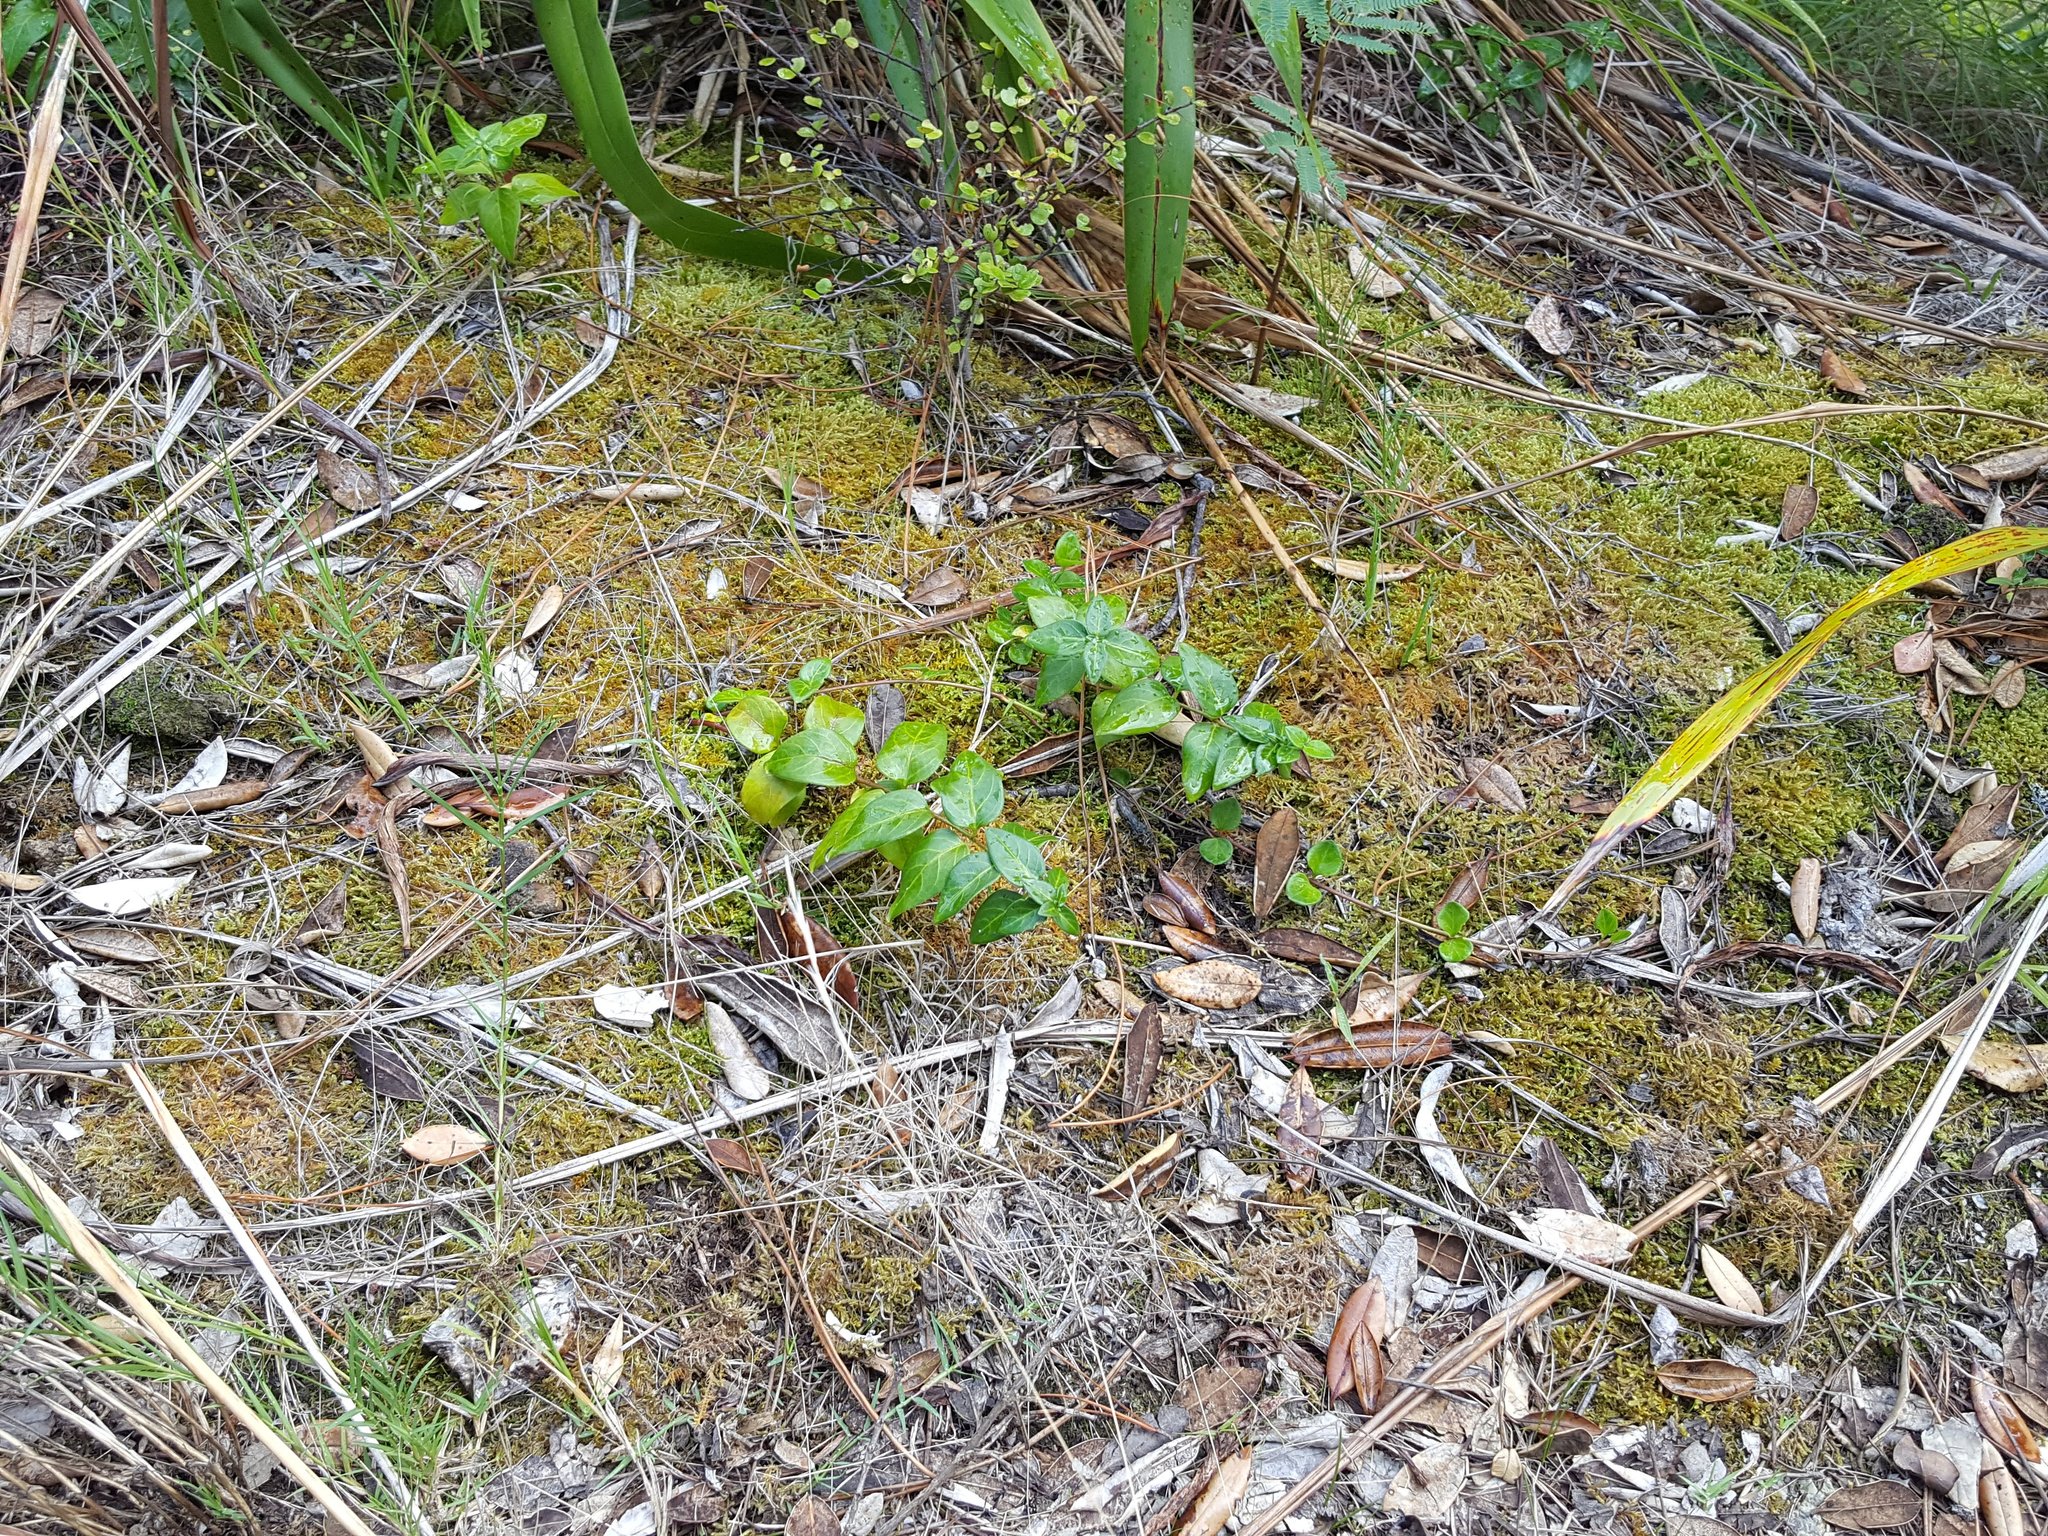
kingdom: Plantae
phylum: Tracheophyta
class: Magnoliopsida
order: Gentianales
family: Apocynaceae
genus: Vinca
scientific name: Vinca major
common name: Greater periwinkle
